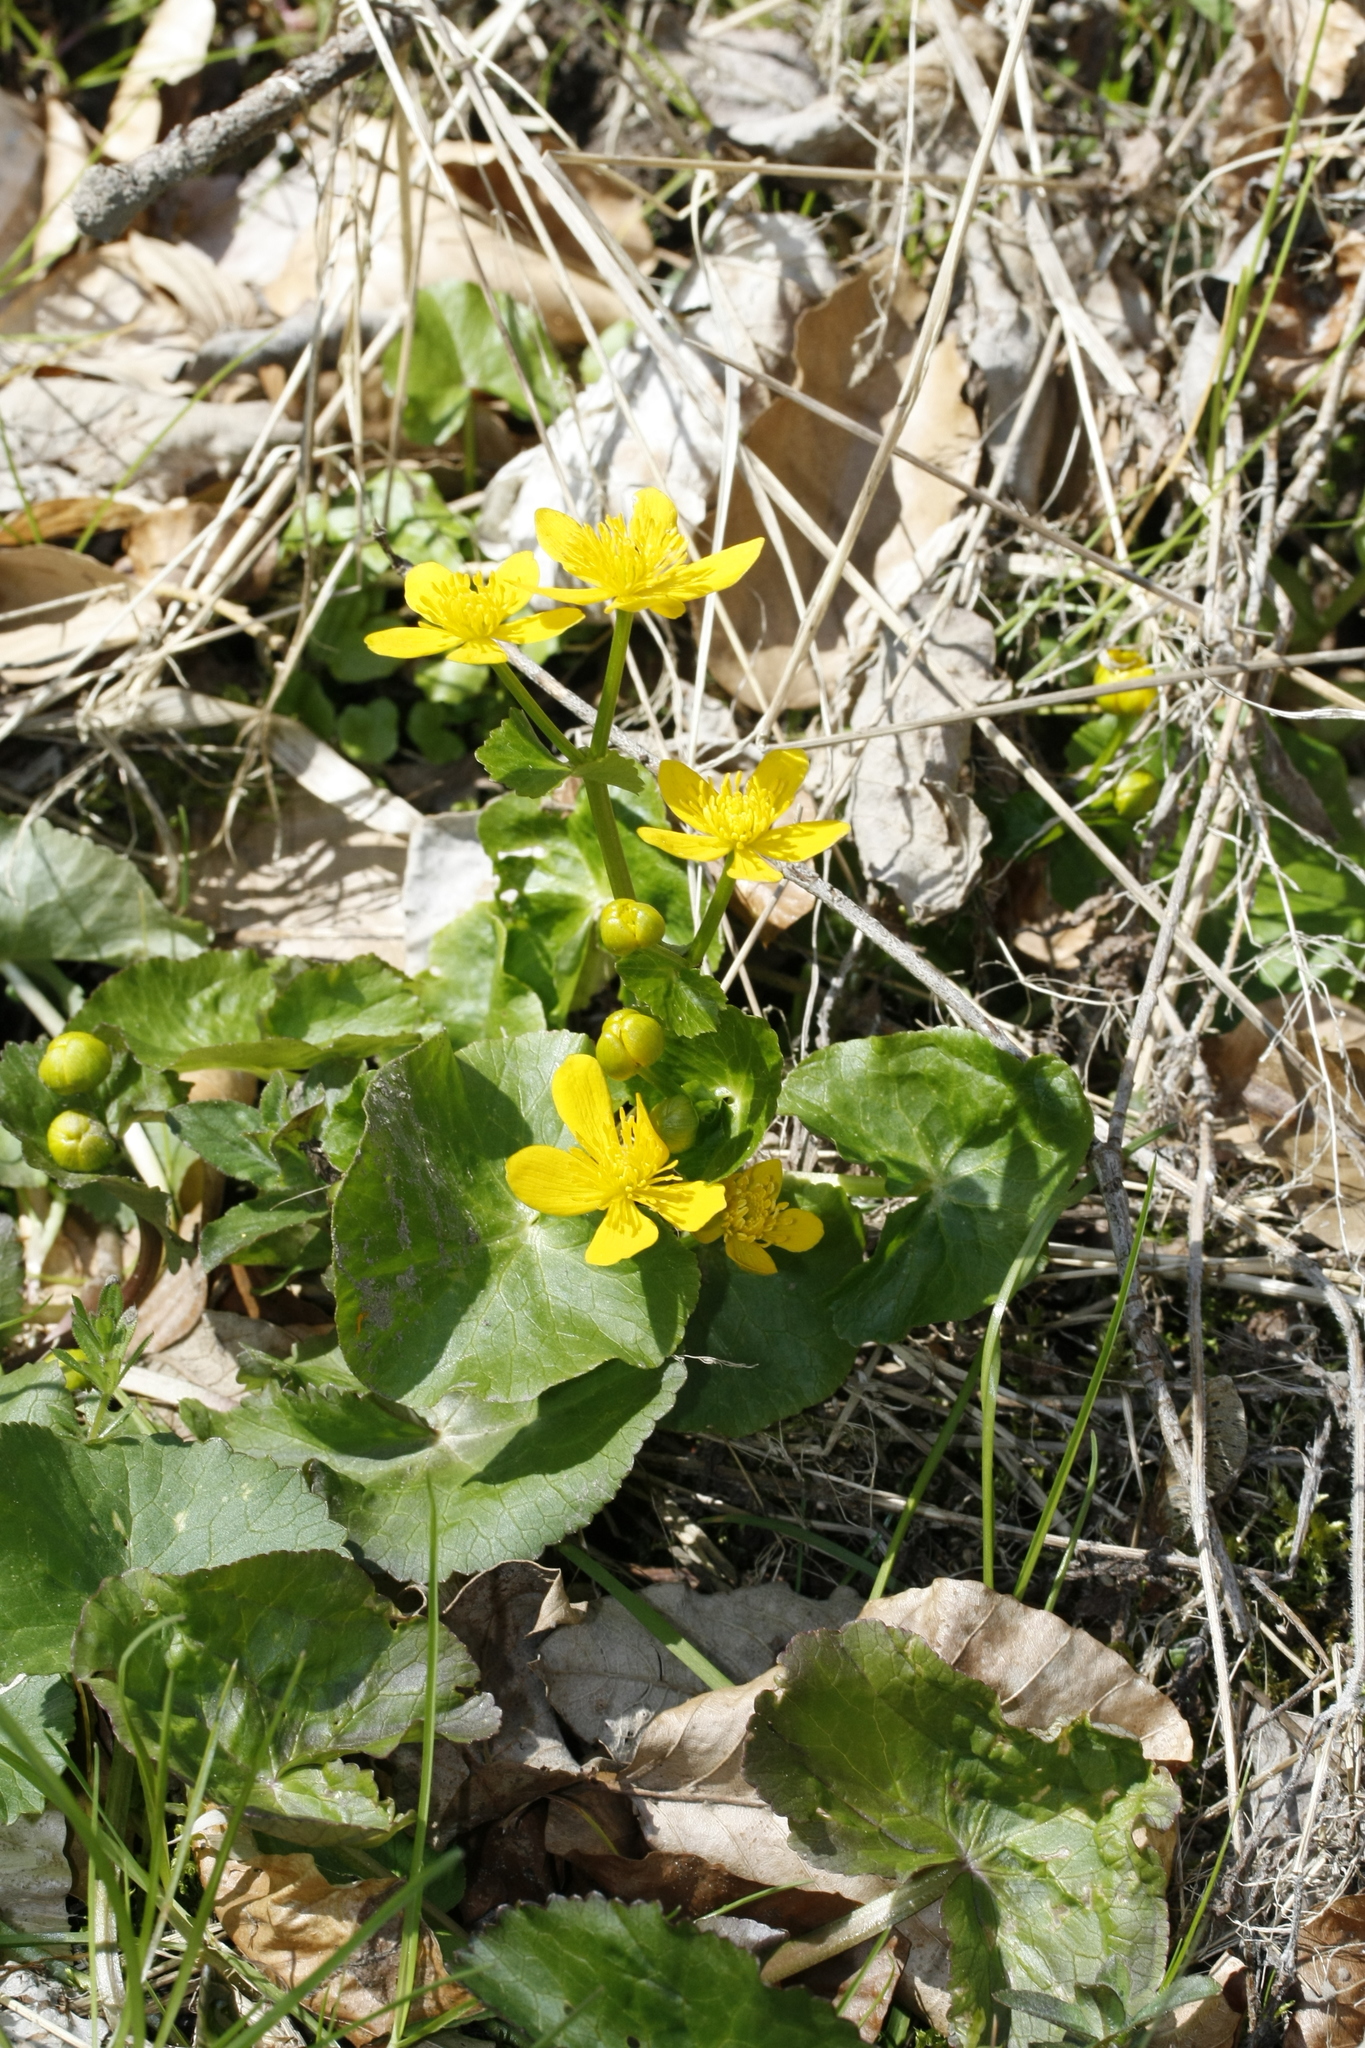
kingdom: Plantae
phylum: Tracheophyta
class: Magnoliopsida
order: Ranunculales
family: Ranunculaceae
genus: Caltha
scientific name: Caltha palustris
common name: Marsh marigold
